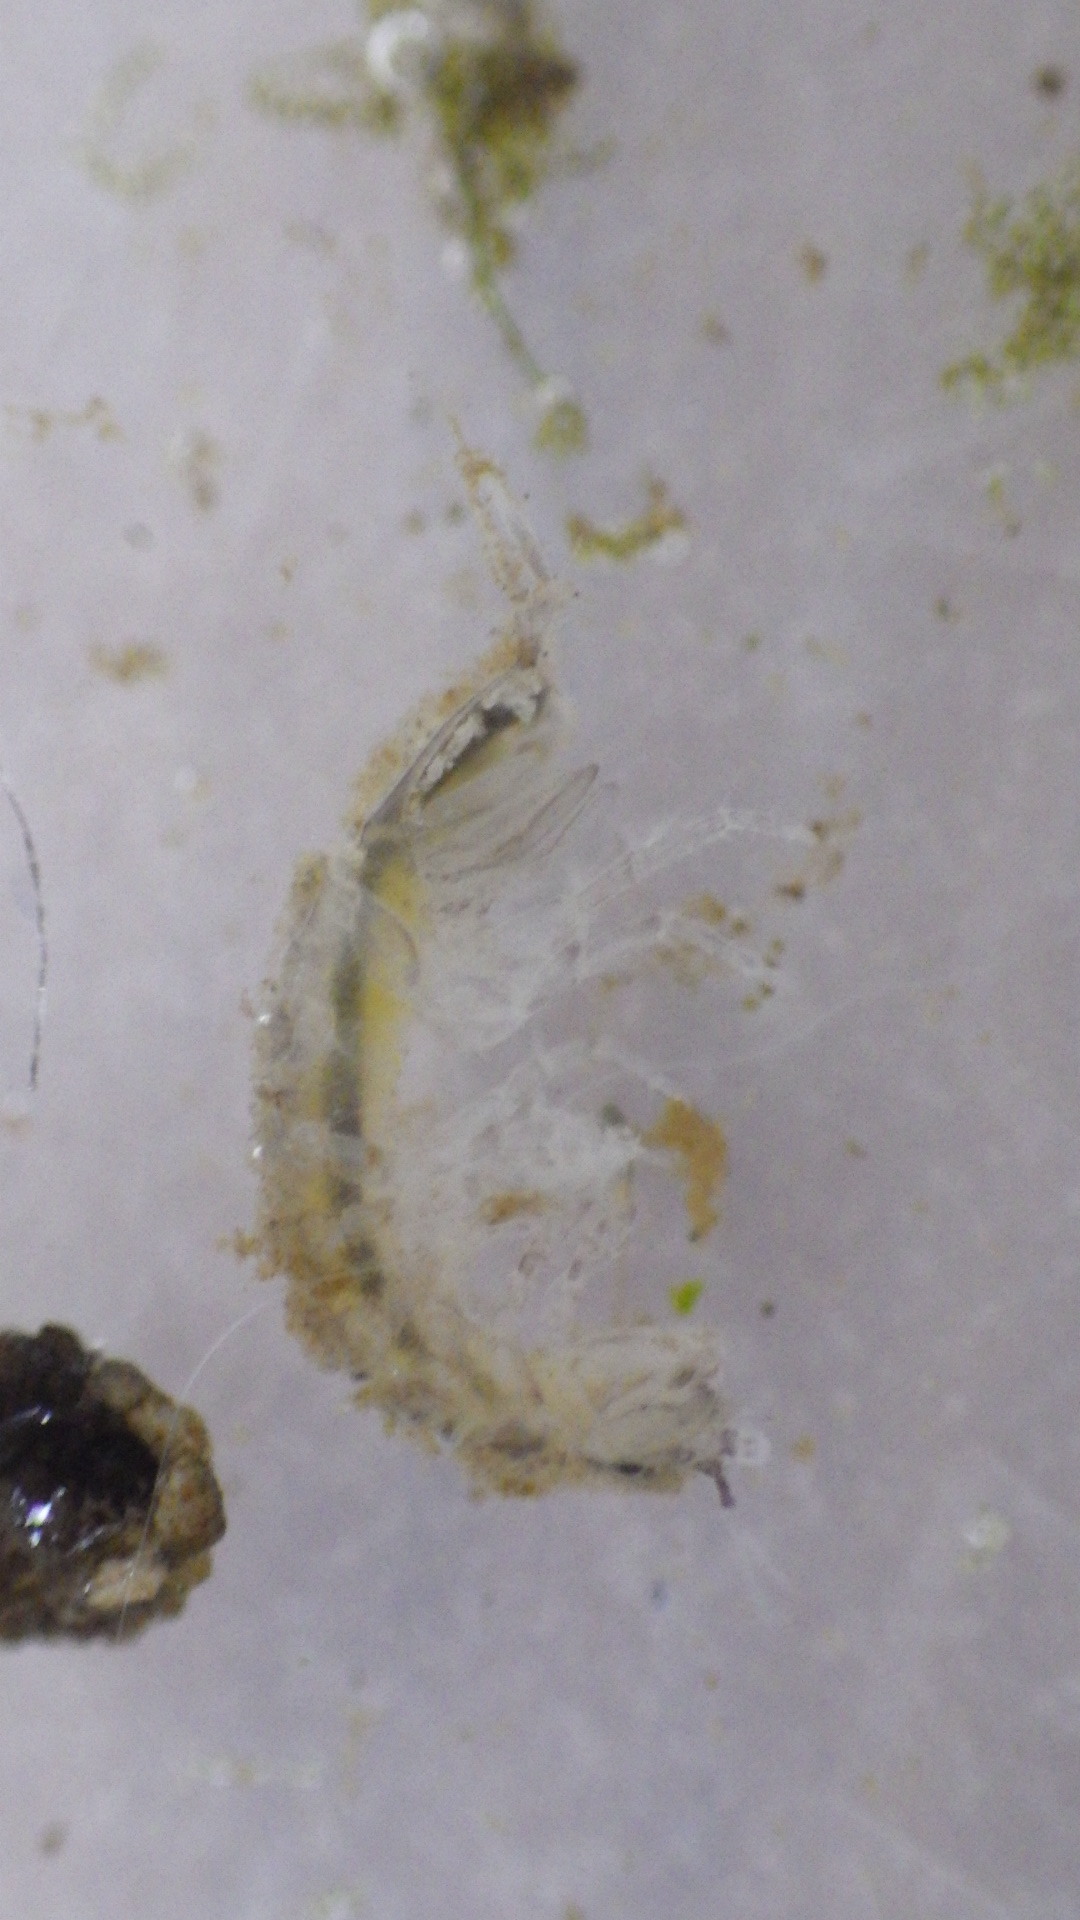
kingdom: Animalia
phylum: Arthropoda
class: Malacostraca
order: Isopoda
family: Asellidae
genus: Caecidotea
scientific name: Caecidotea communis
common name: Eastern waterslater
